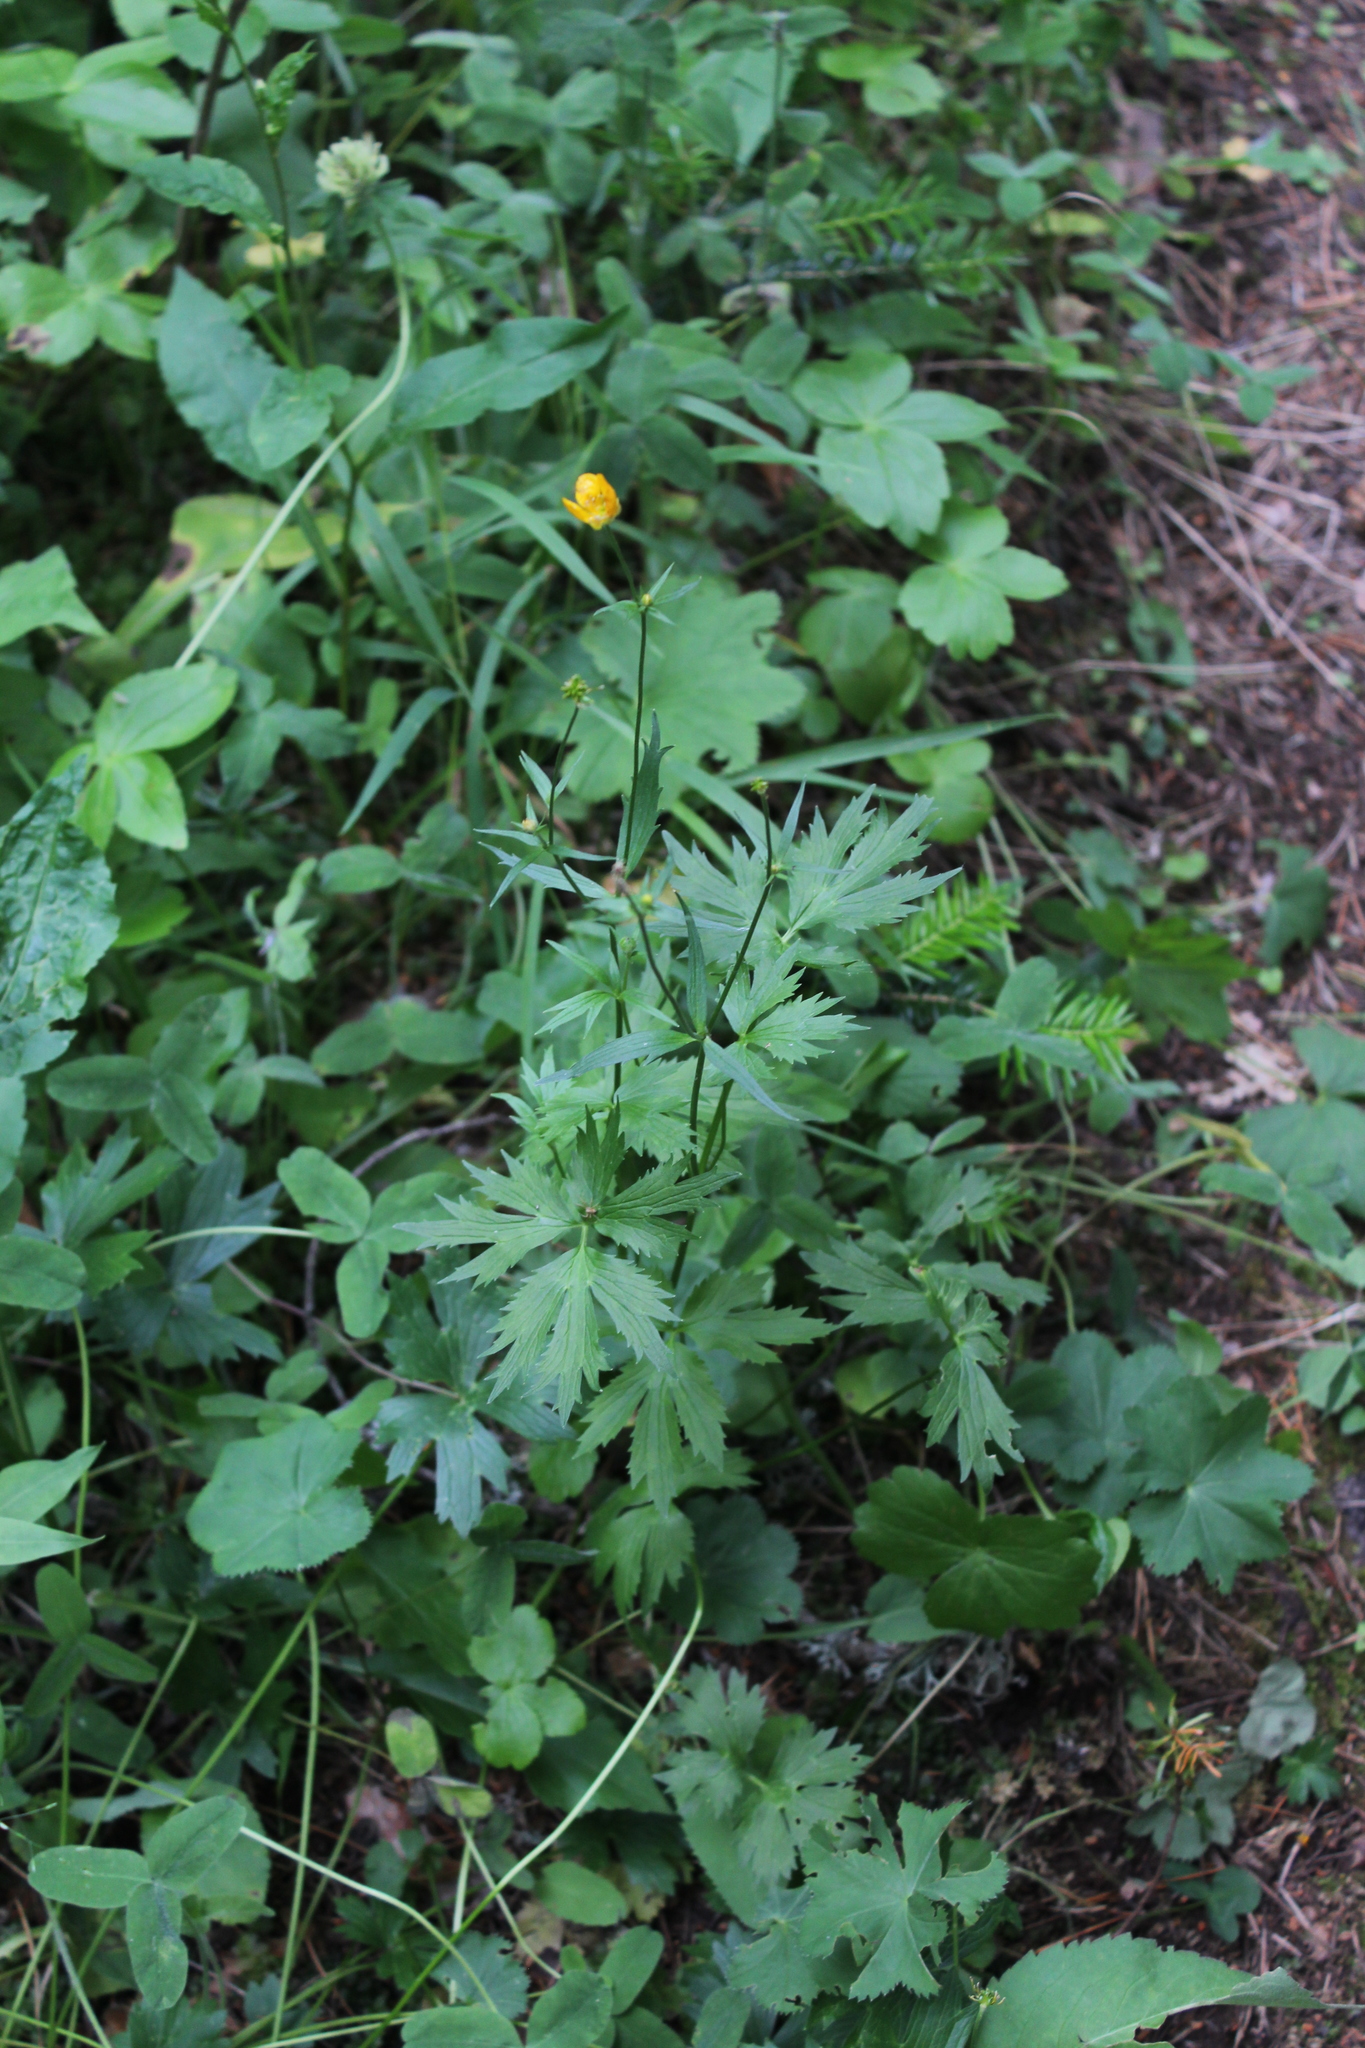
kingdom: Plantae
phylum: Tracheophyta
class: Magnoliopsida
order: Ranunculales
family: Ranunculaceae
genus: Ranunculus
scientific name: Ranunculus caucasicus
